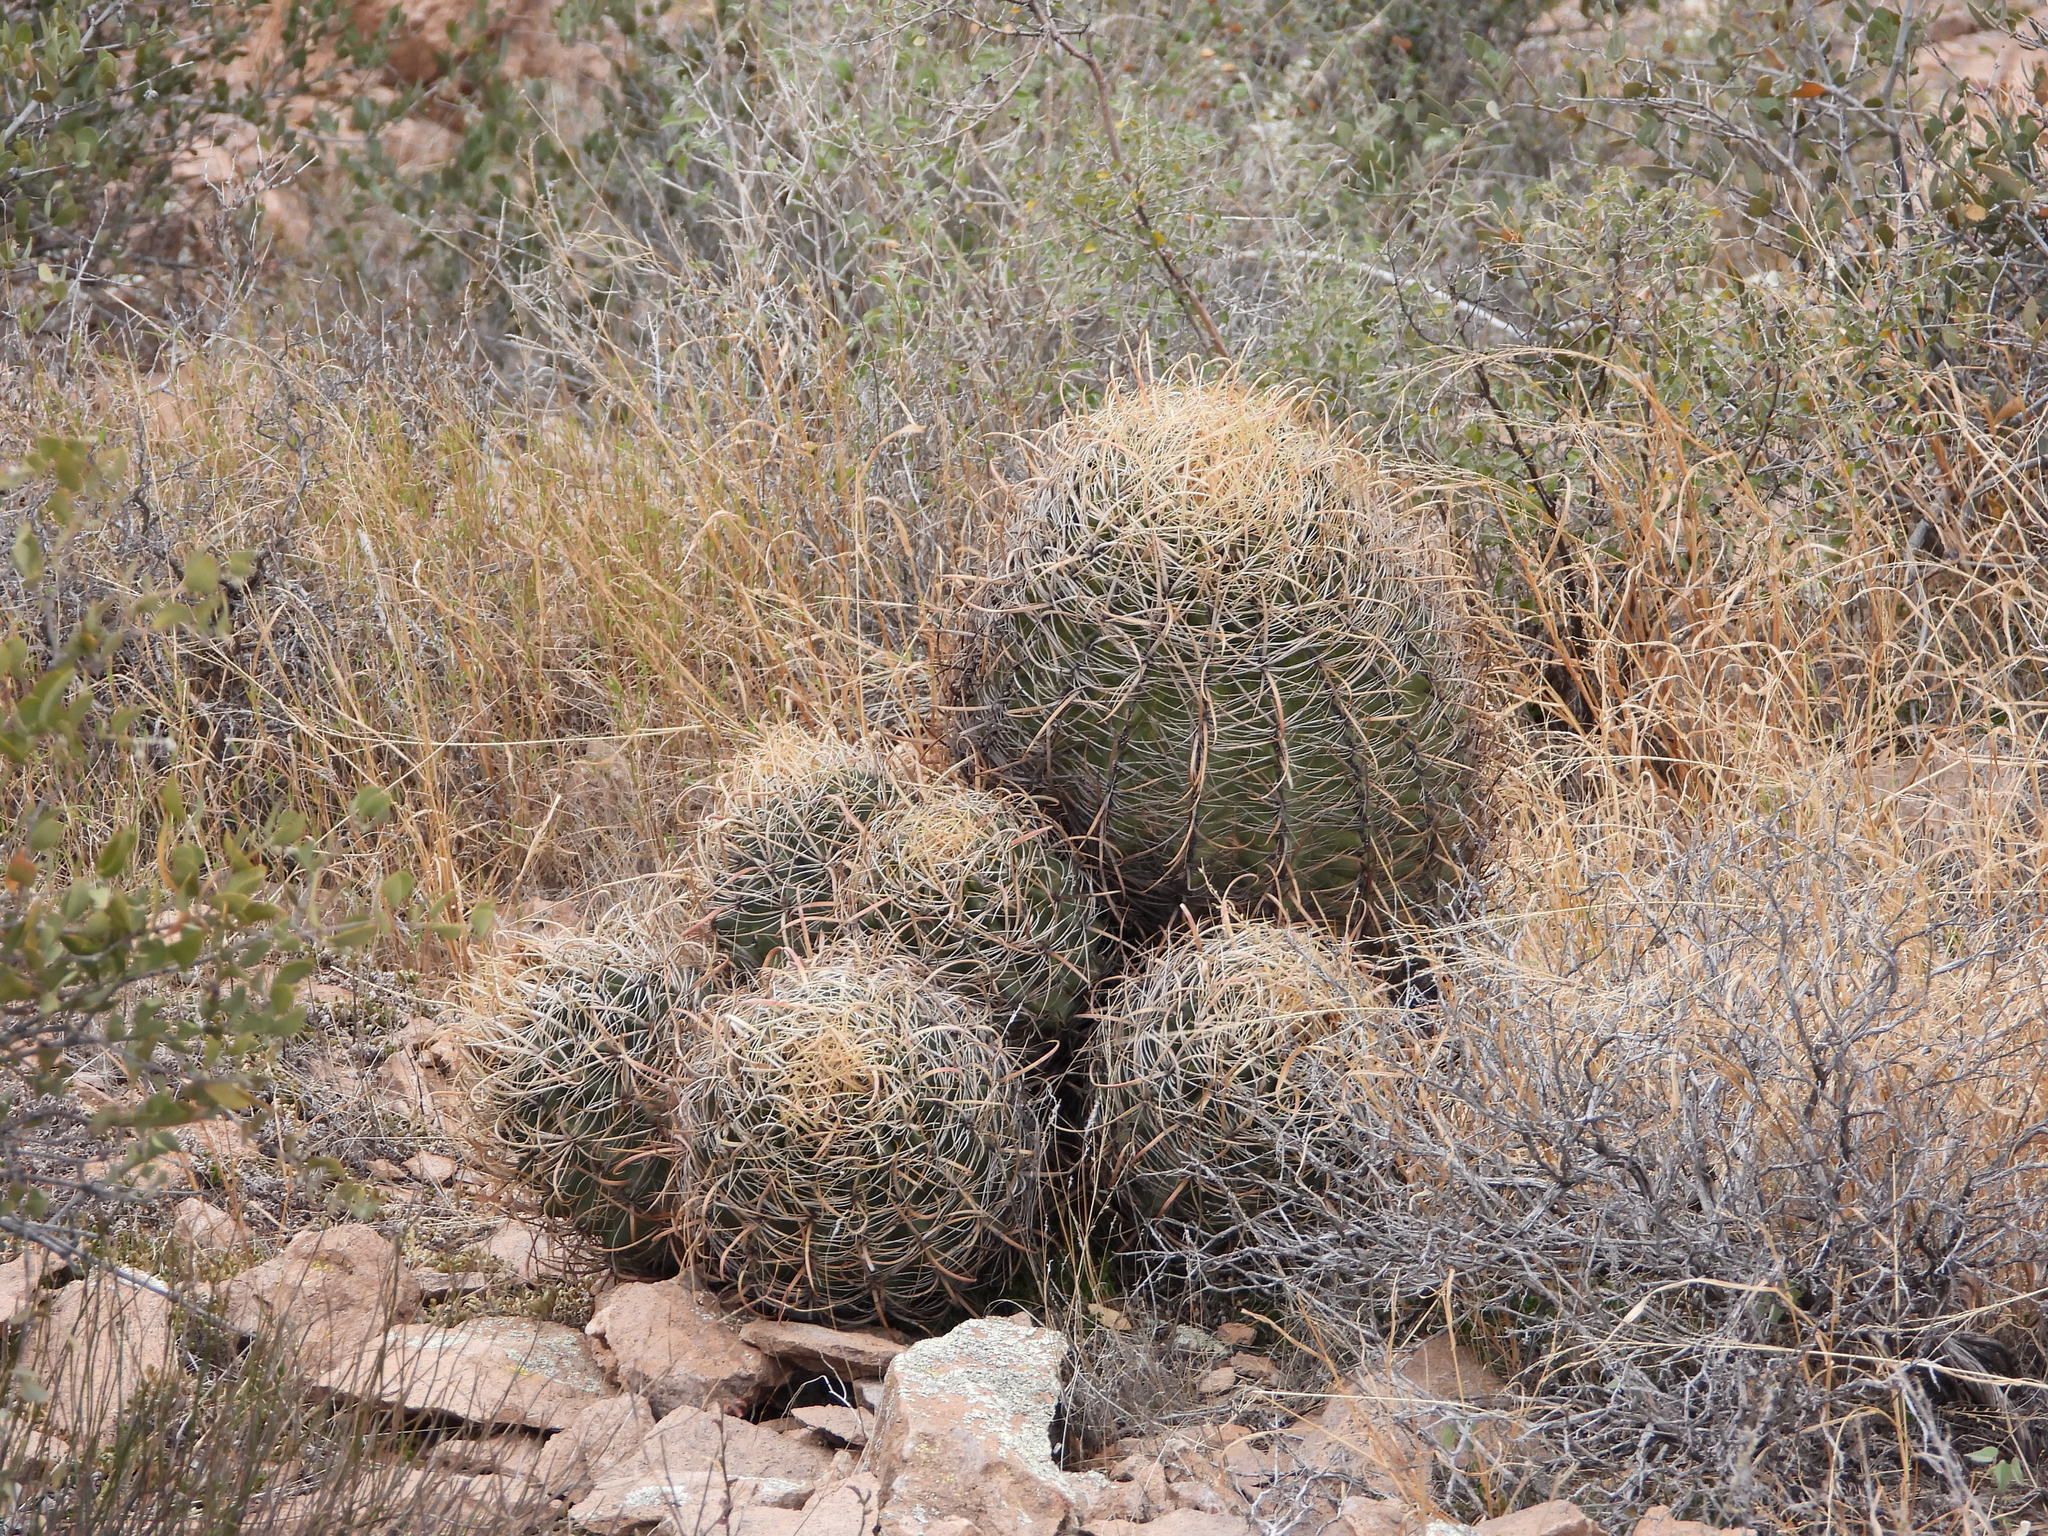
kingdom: Plantae
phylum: Tracheophyta
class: Magnoliopsida
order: Caryophyllales
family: Cactaceae
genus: Ferocactus
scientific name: Ferocactus cylindraceus
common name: California barrel cactus
